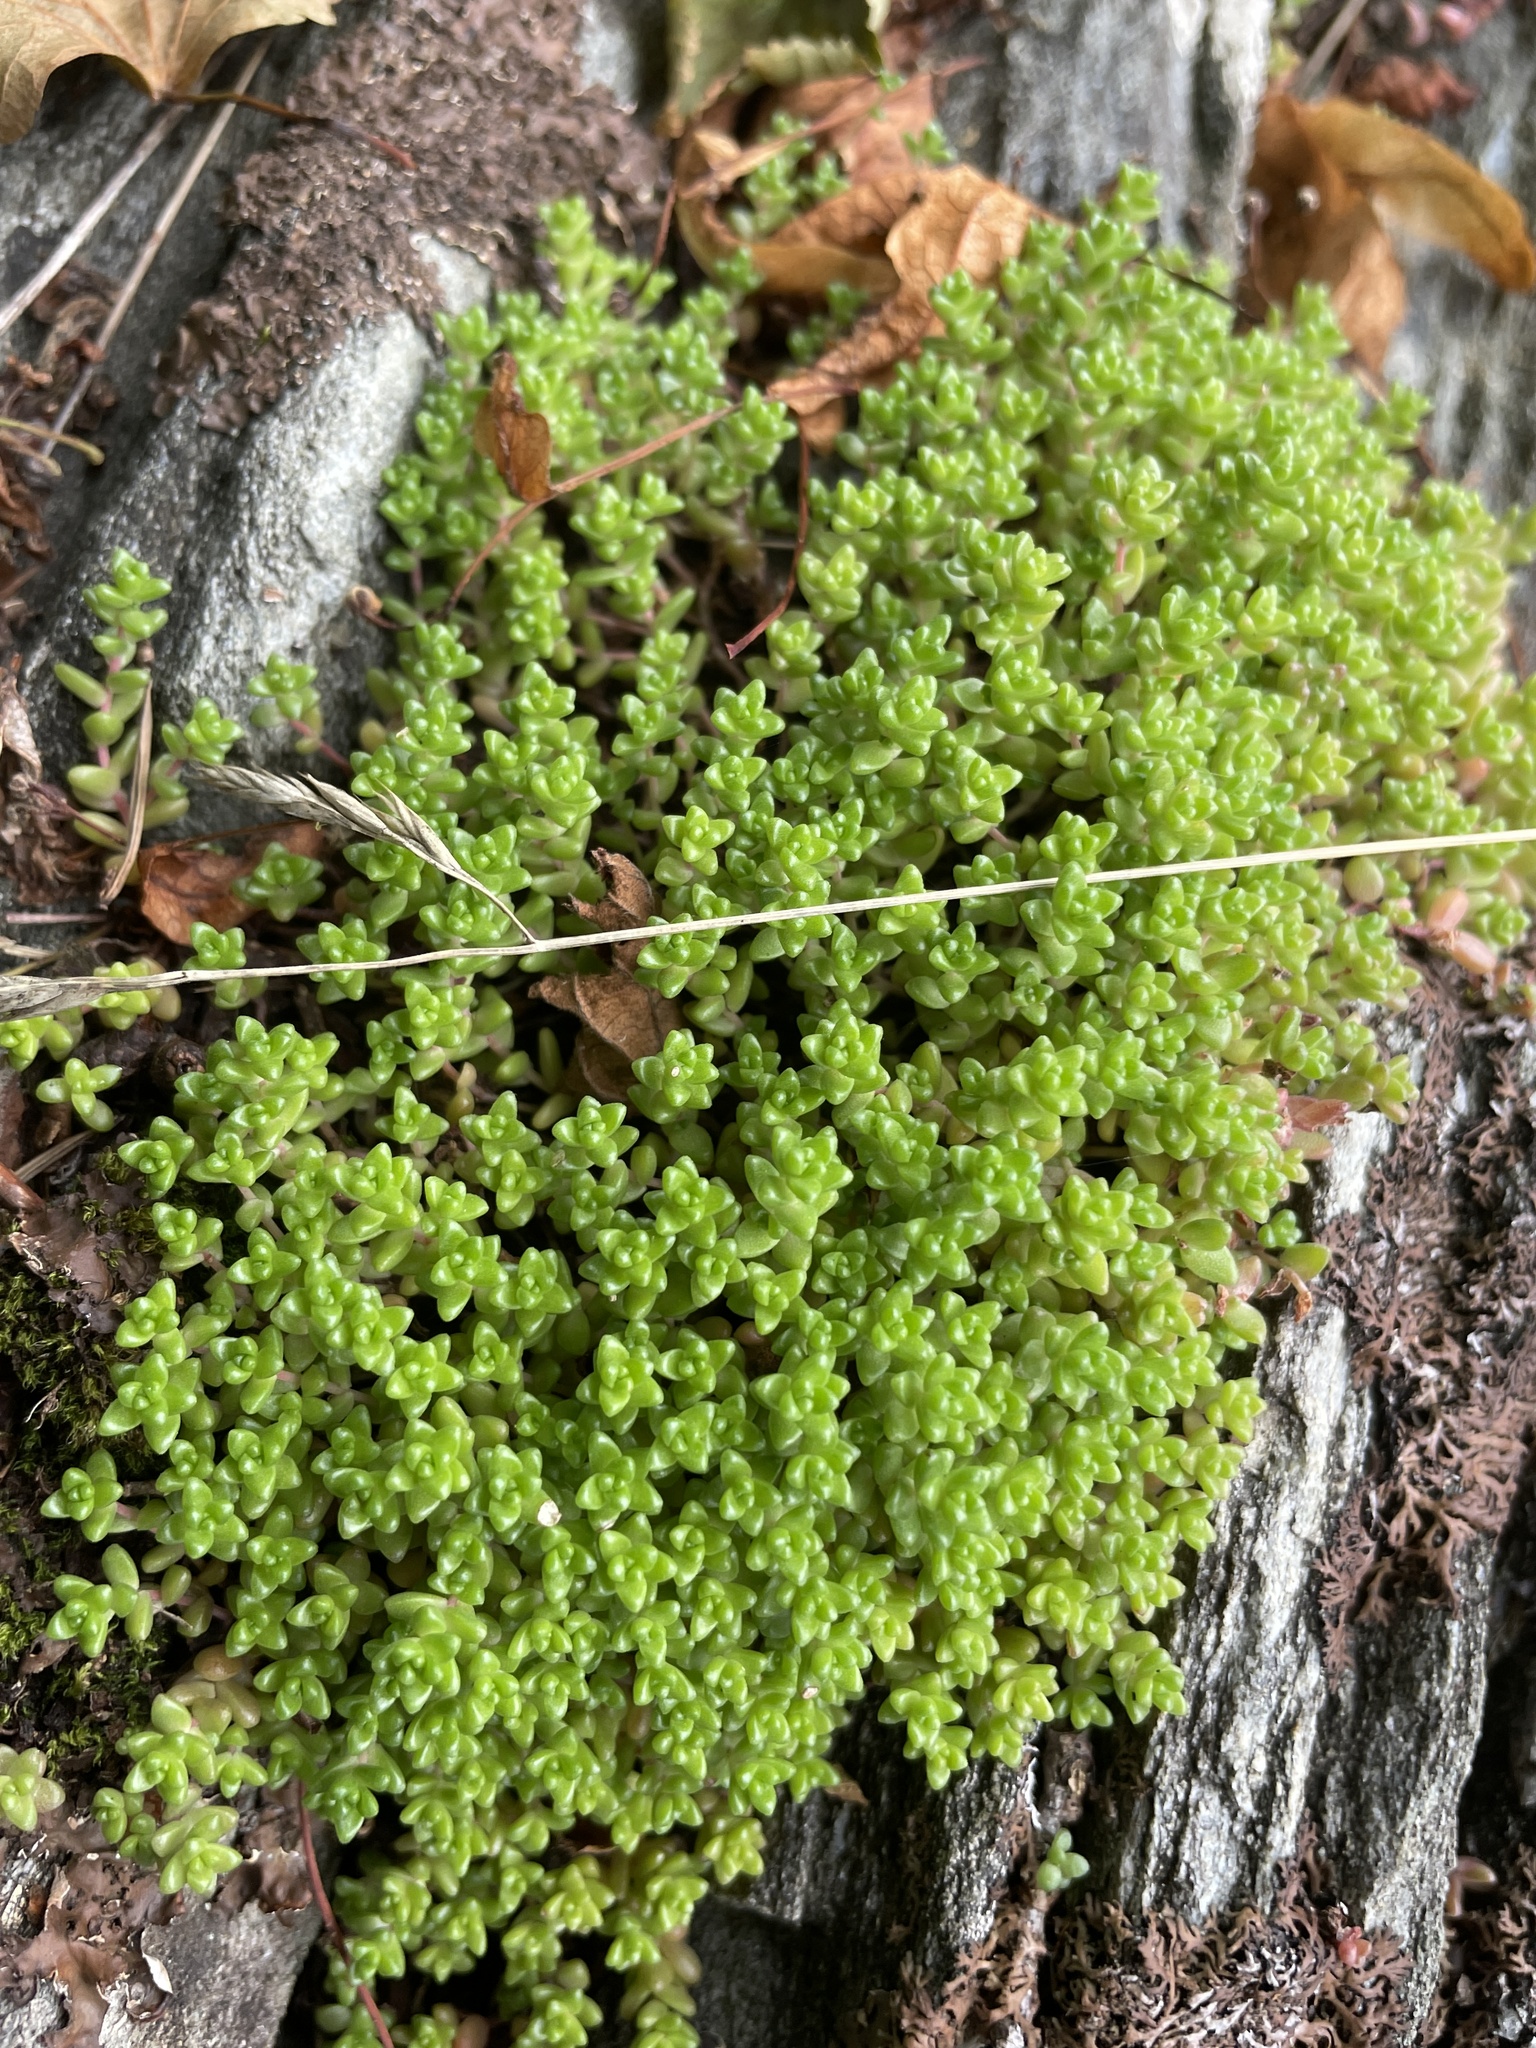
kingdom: Plantae
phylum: Tracheophyta
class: Magnoliopsida
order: Saxifragales
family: Crassulaceae
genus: Sedum
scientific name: Sedum anglicum
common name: English stonecrop
